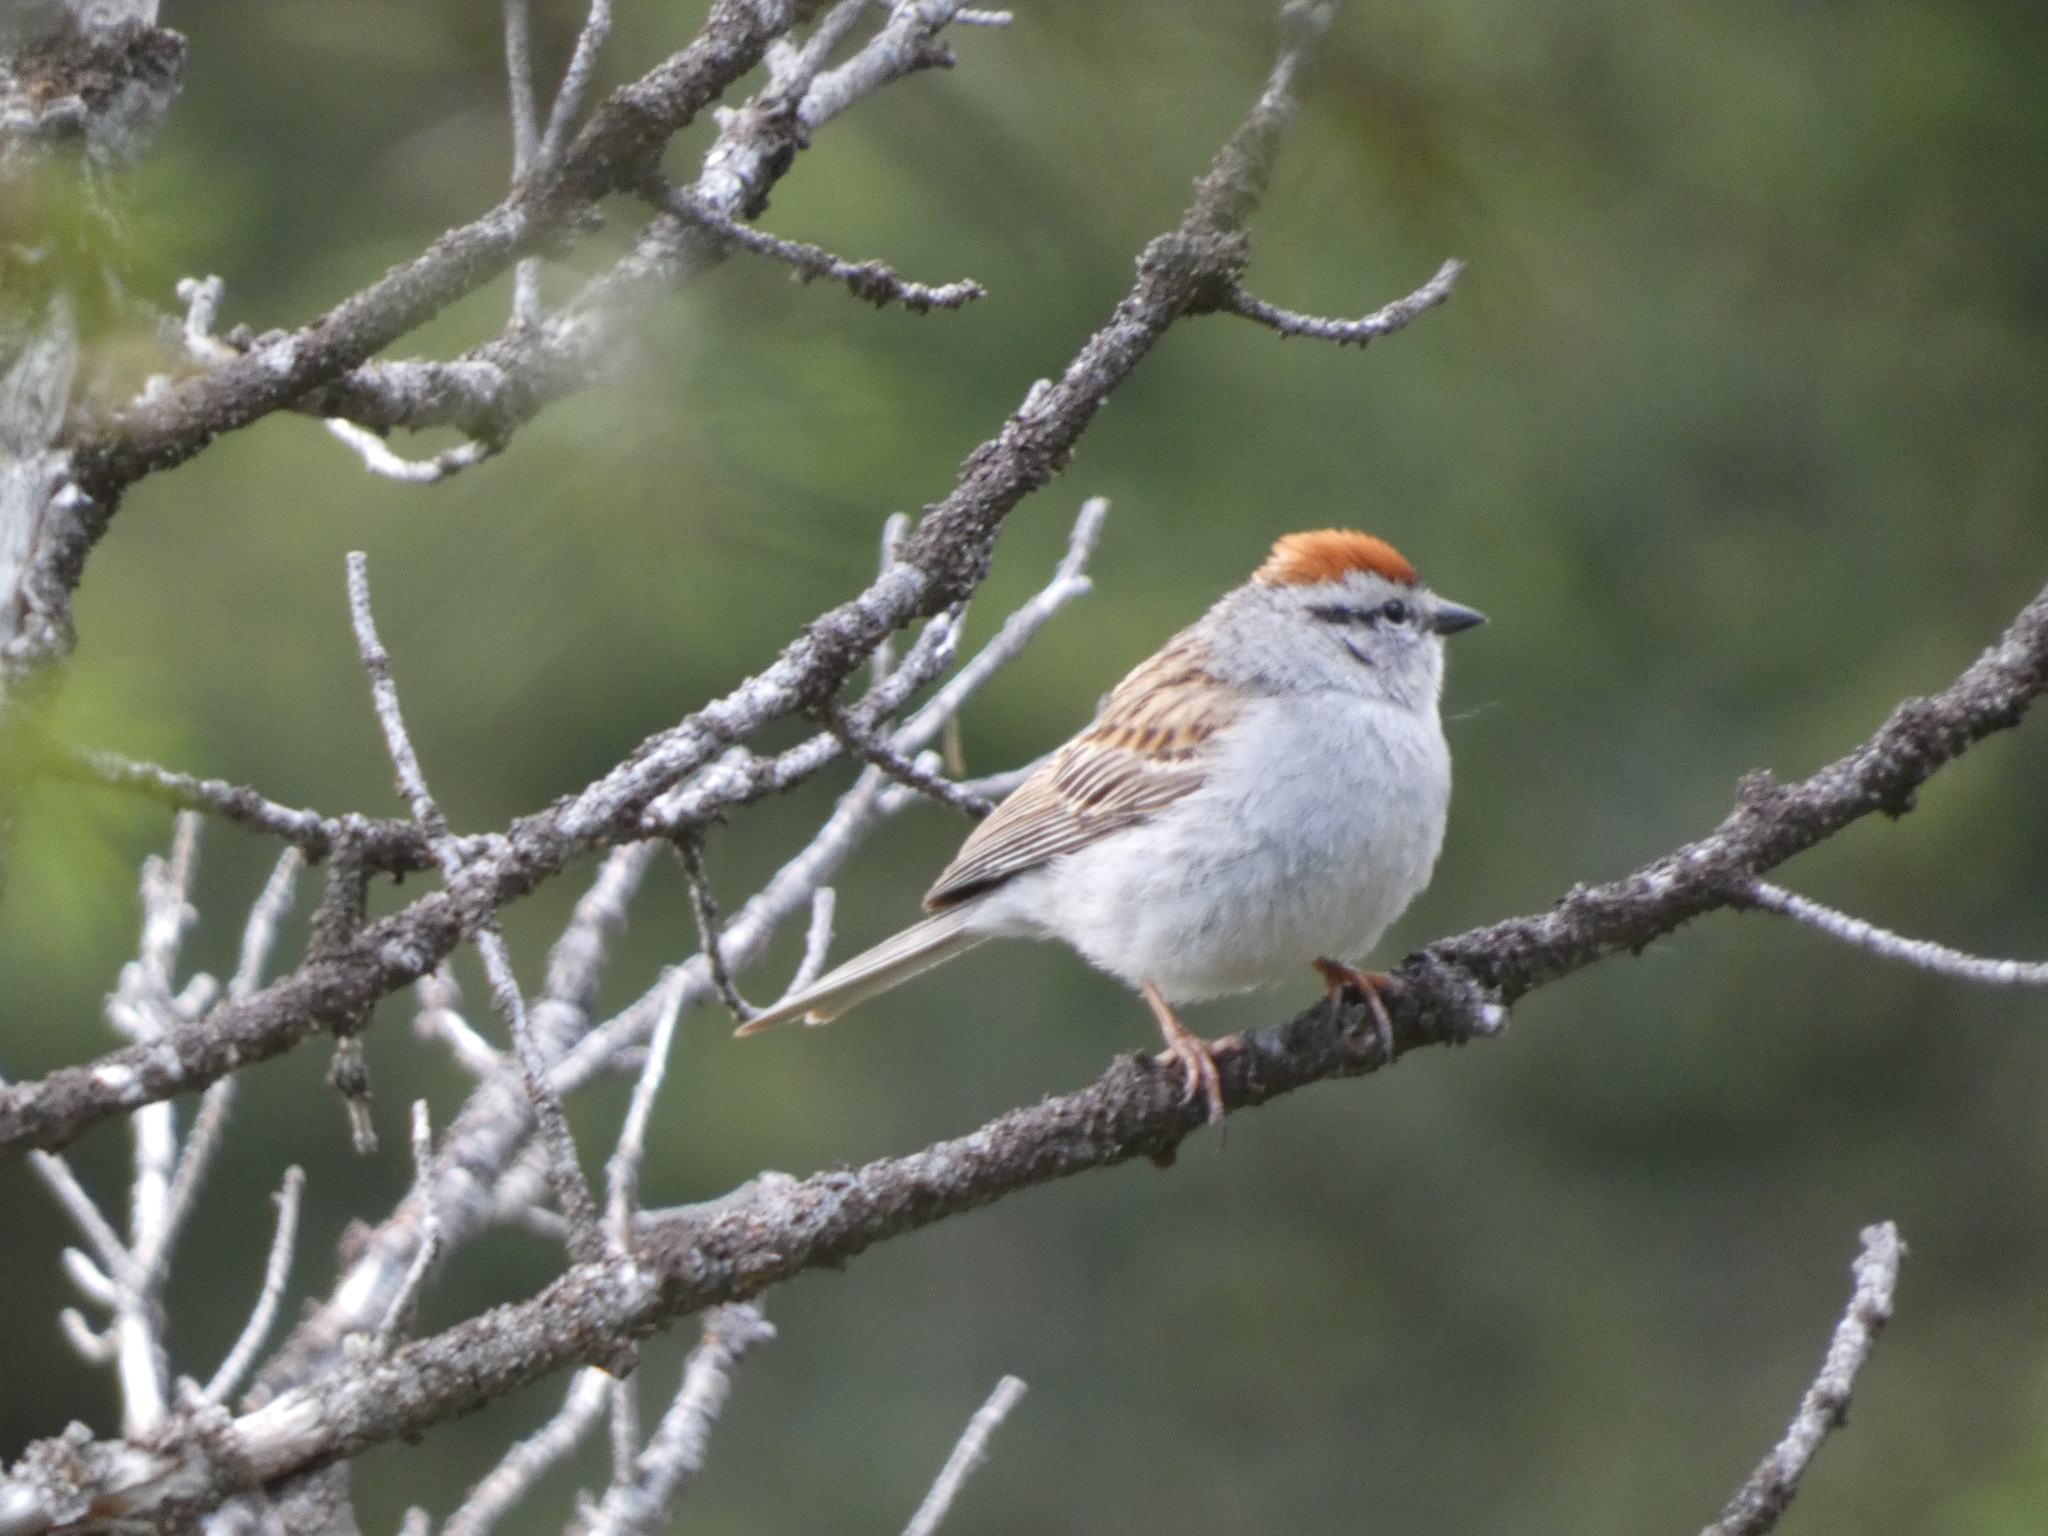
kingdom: Animalia
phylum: Chordata
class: Aves
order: Passeriformes
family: Passerellidae
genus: Spizella
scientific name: Spizella passerina
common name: Chipping sparrow
